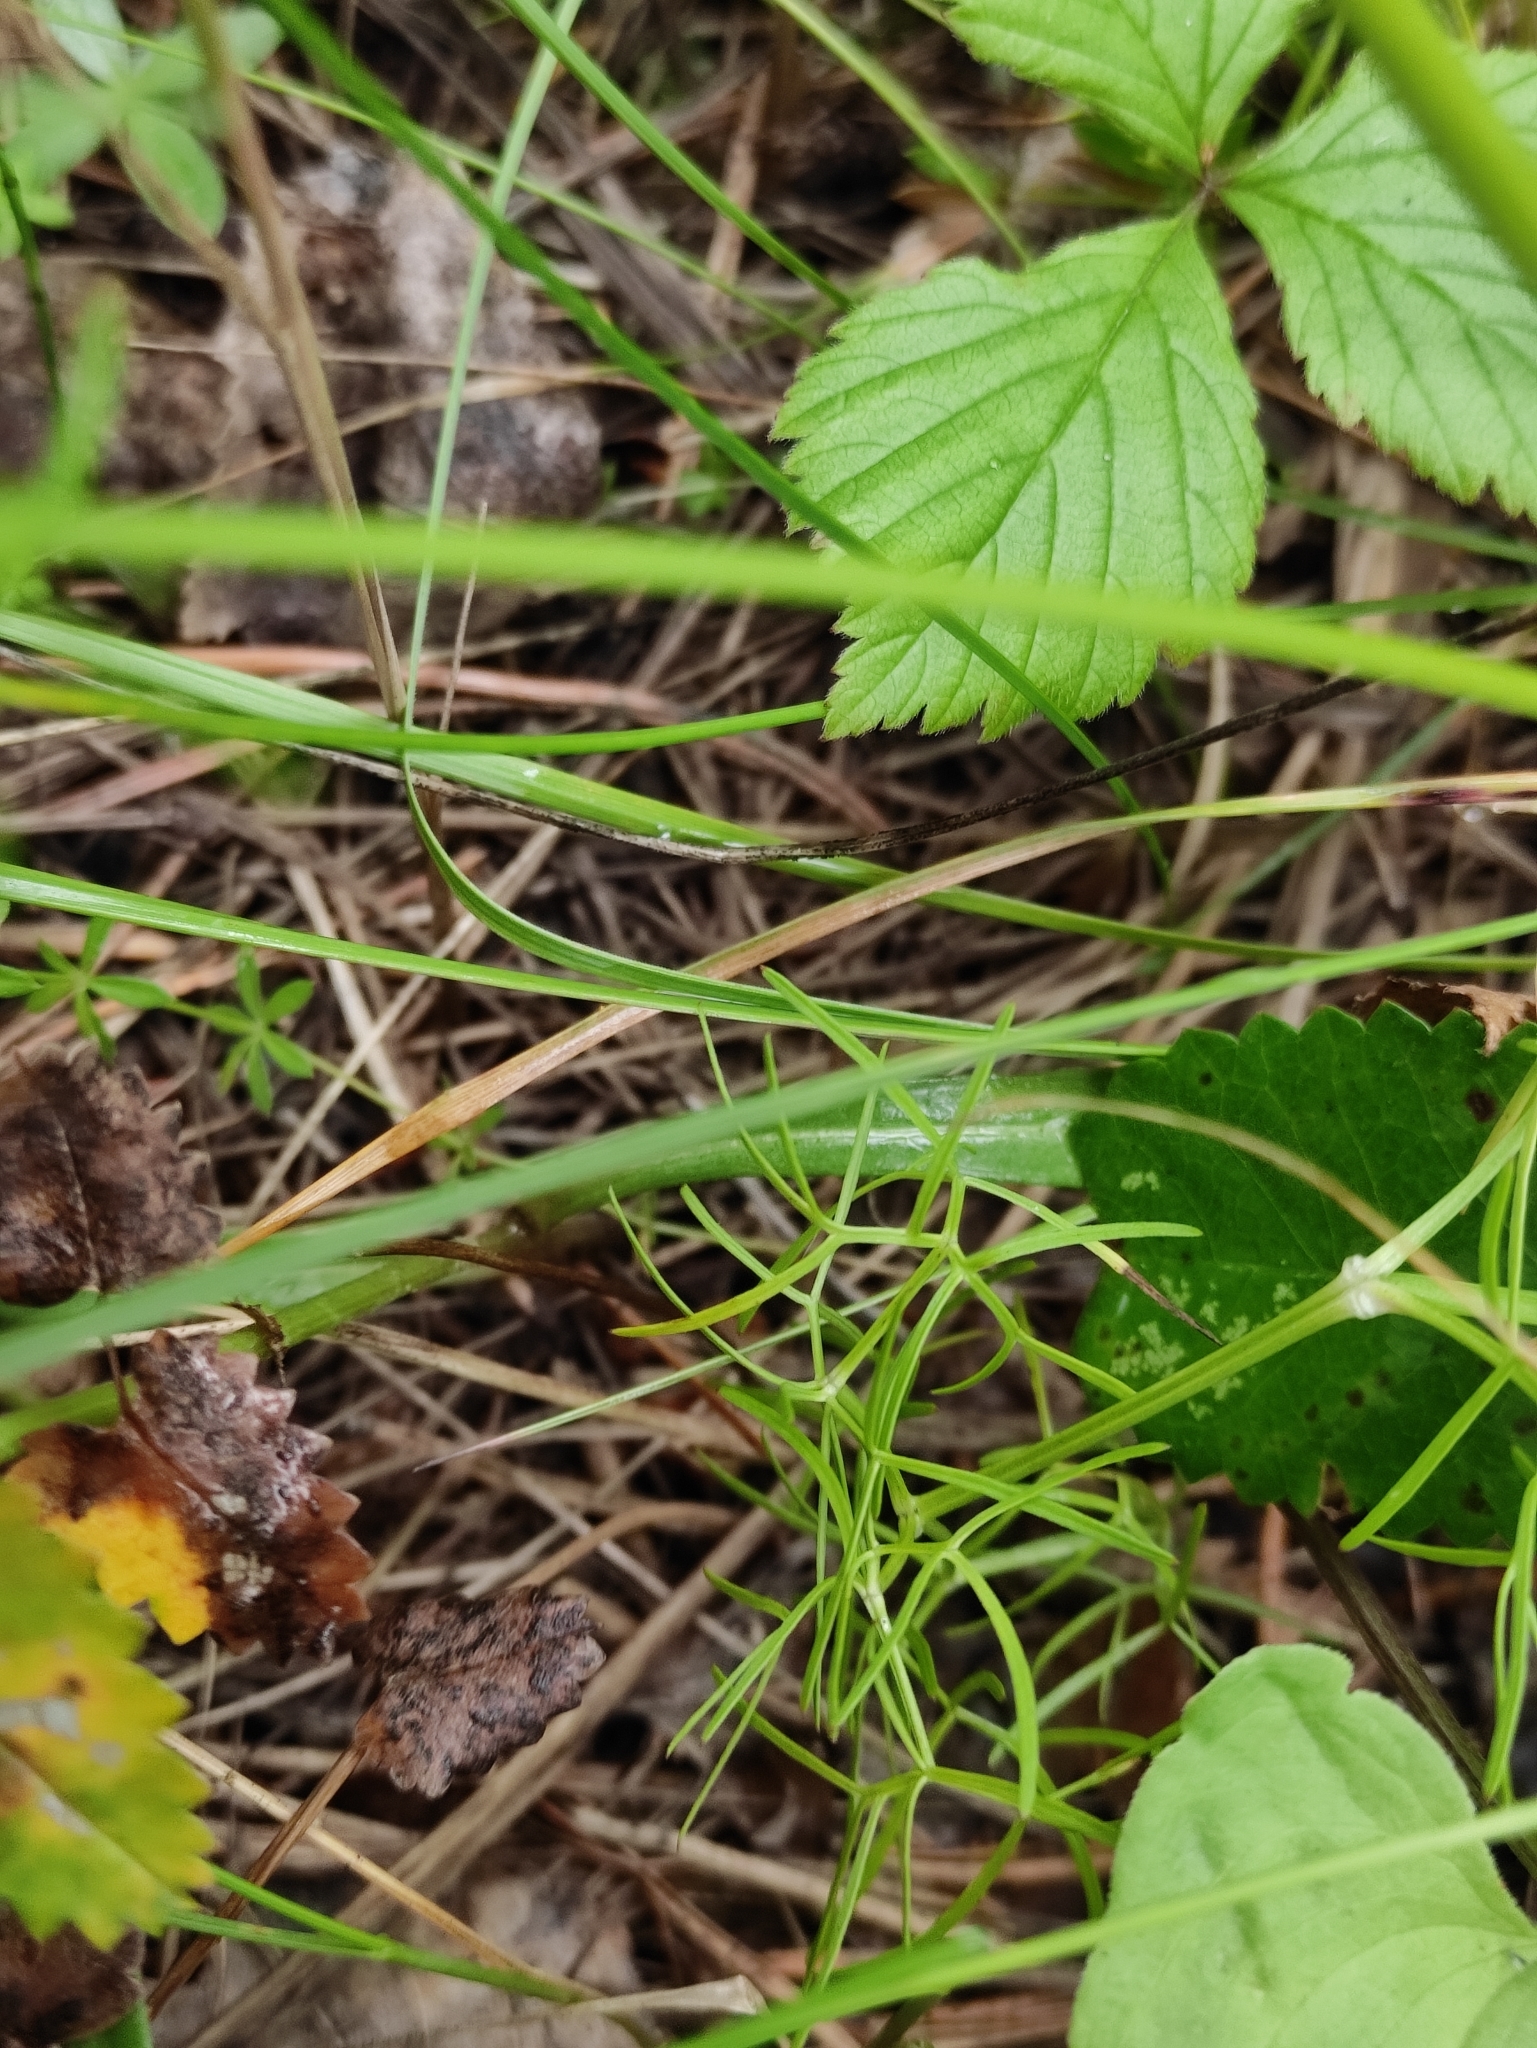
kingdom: Plantae
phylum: Tracheophyta
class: Magnoliopsida
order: Apiales
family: Apiaceae
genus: Cenolophium
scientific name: Cenolophium fischeri
